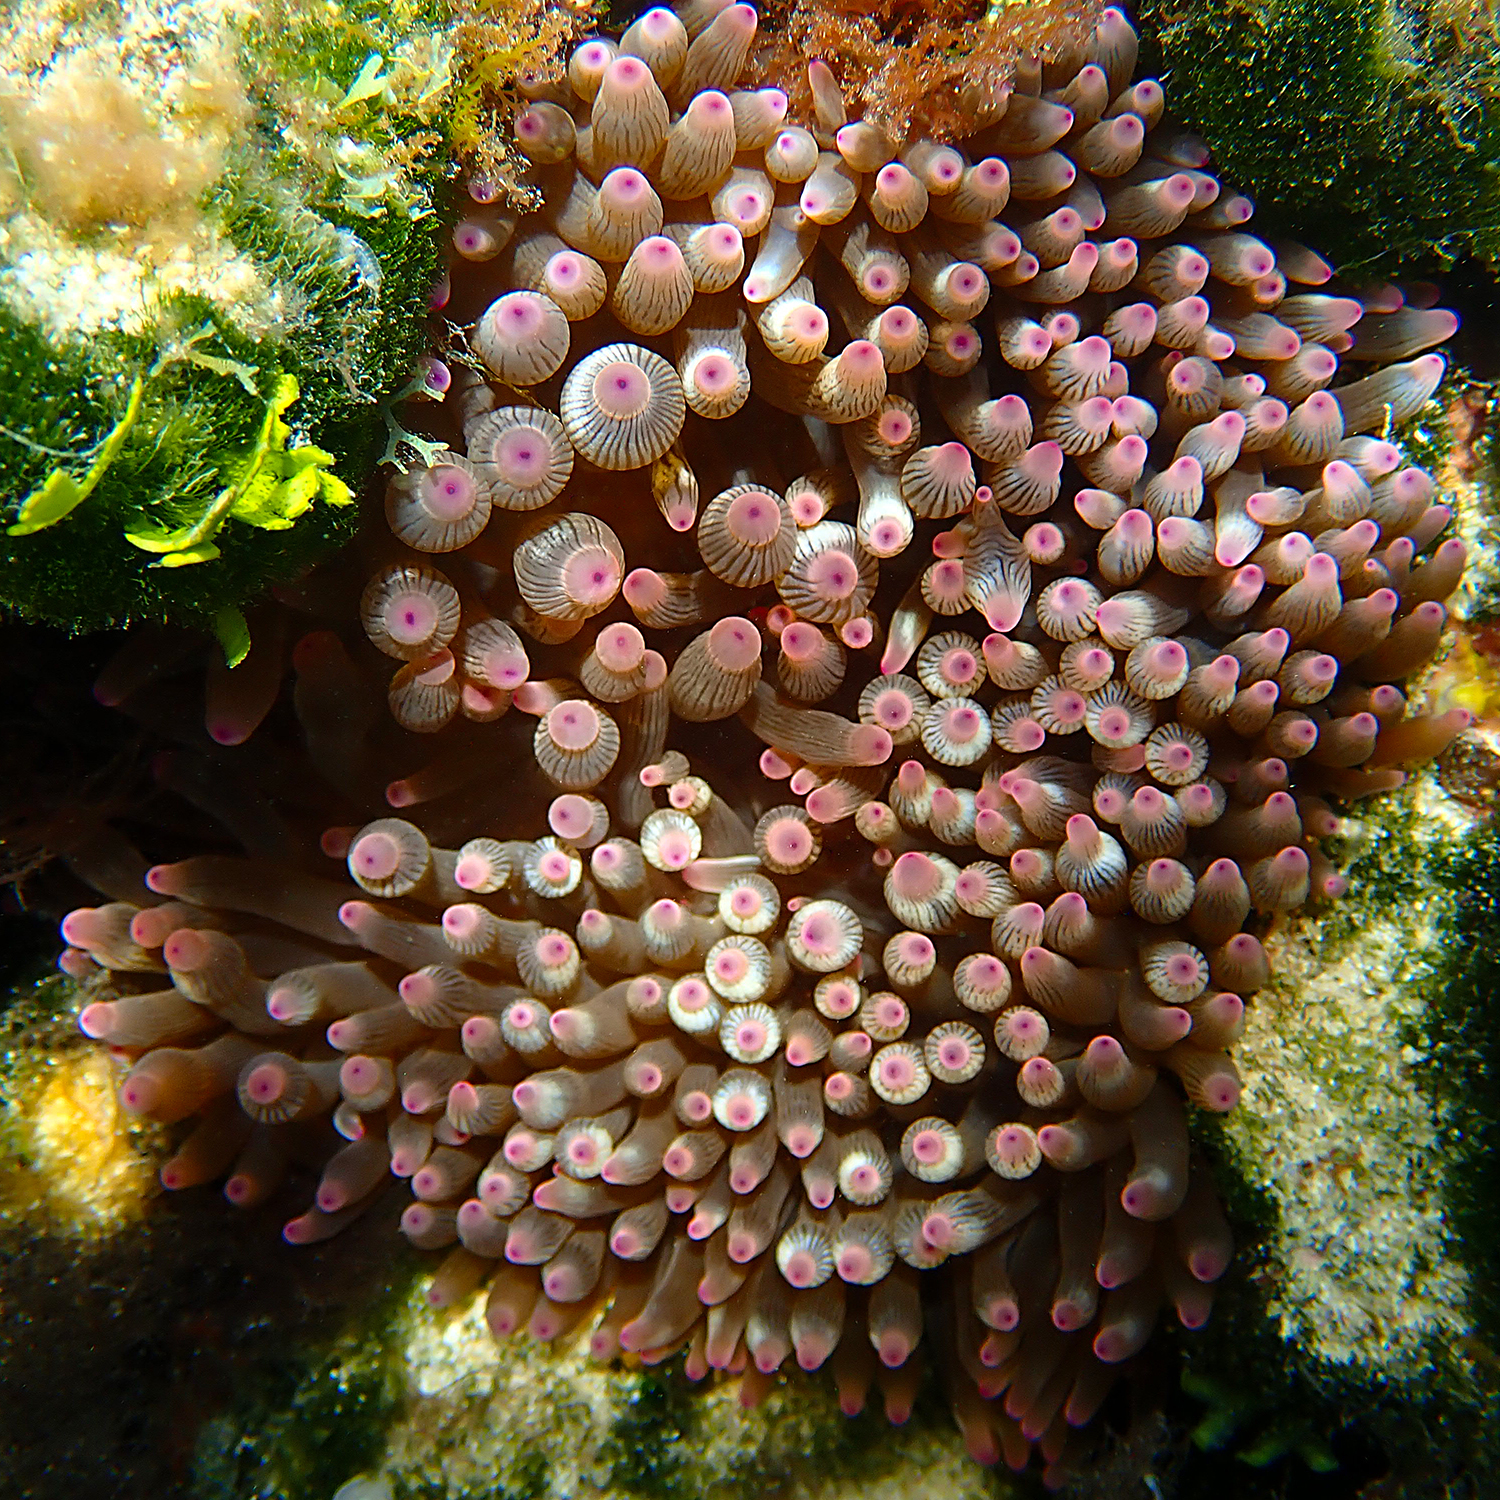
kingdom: Animalia
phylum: Cnidaria
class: Anthozoa
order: Actiniaria
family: Actiniidae
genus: Entacmaea
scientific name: Entacmaea quadricolor
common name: Bulb tentacle sea anemone
